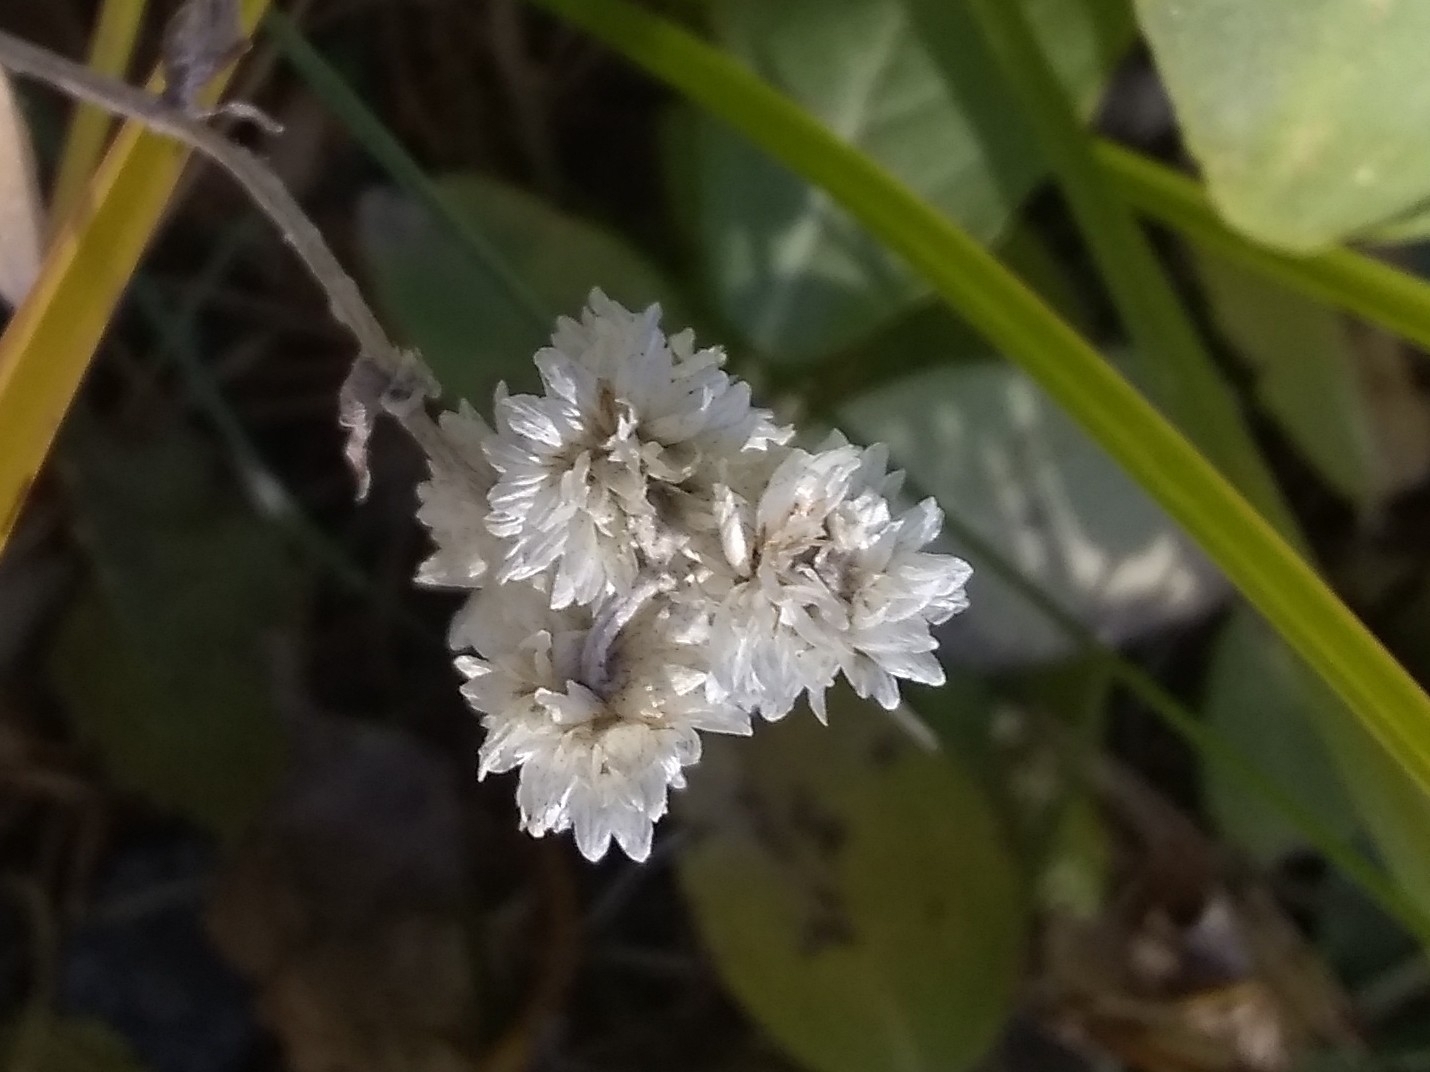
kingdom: Plantae
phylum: Tracheophyta
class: Magnoliopsida
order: Asterales
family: Asteraceae
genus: Anaphalis
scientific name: Anaphalis margaritacea
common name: Pearly everlasting
